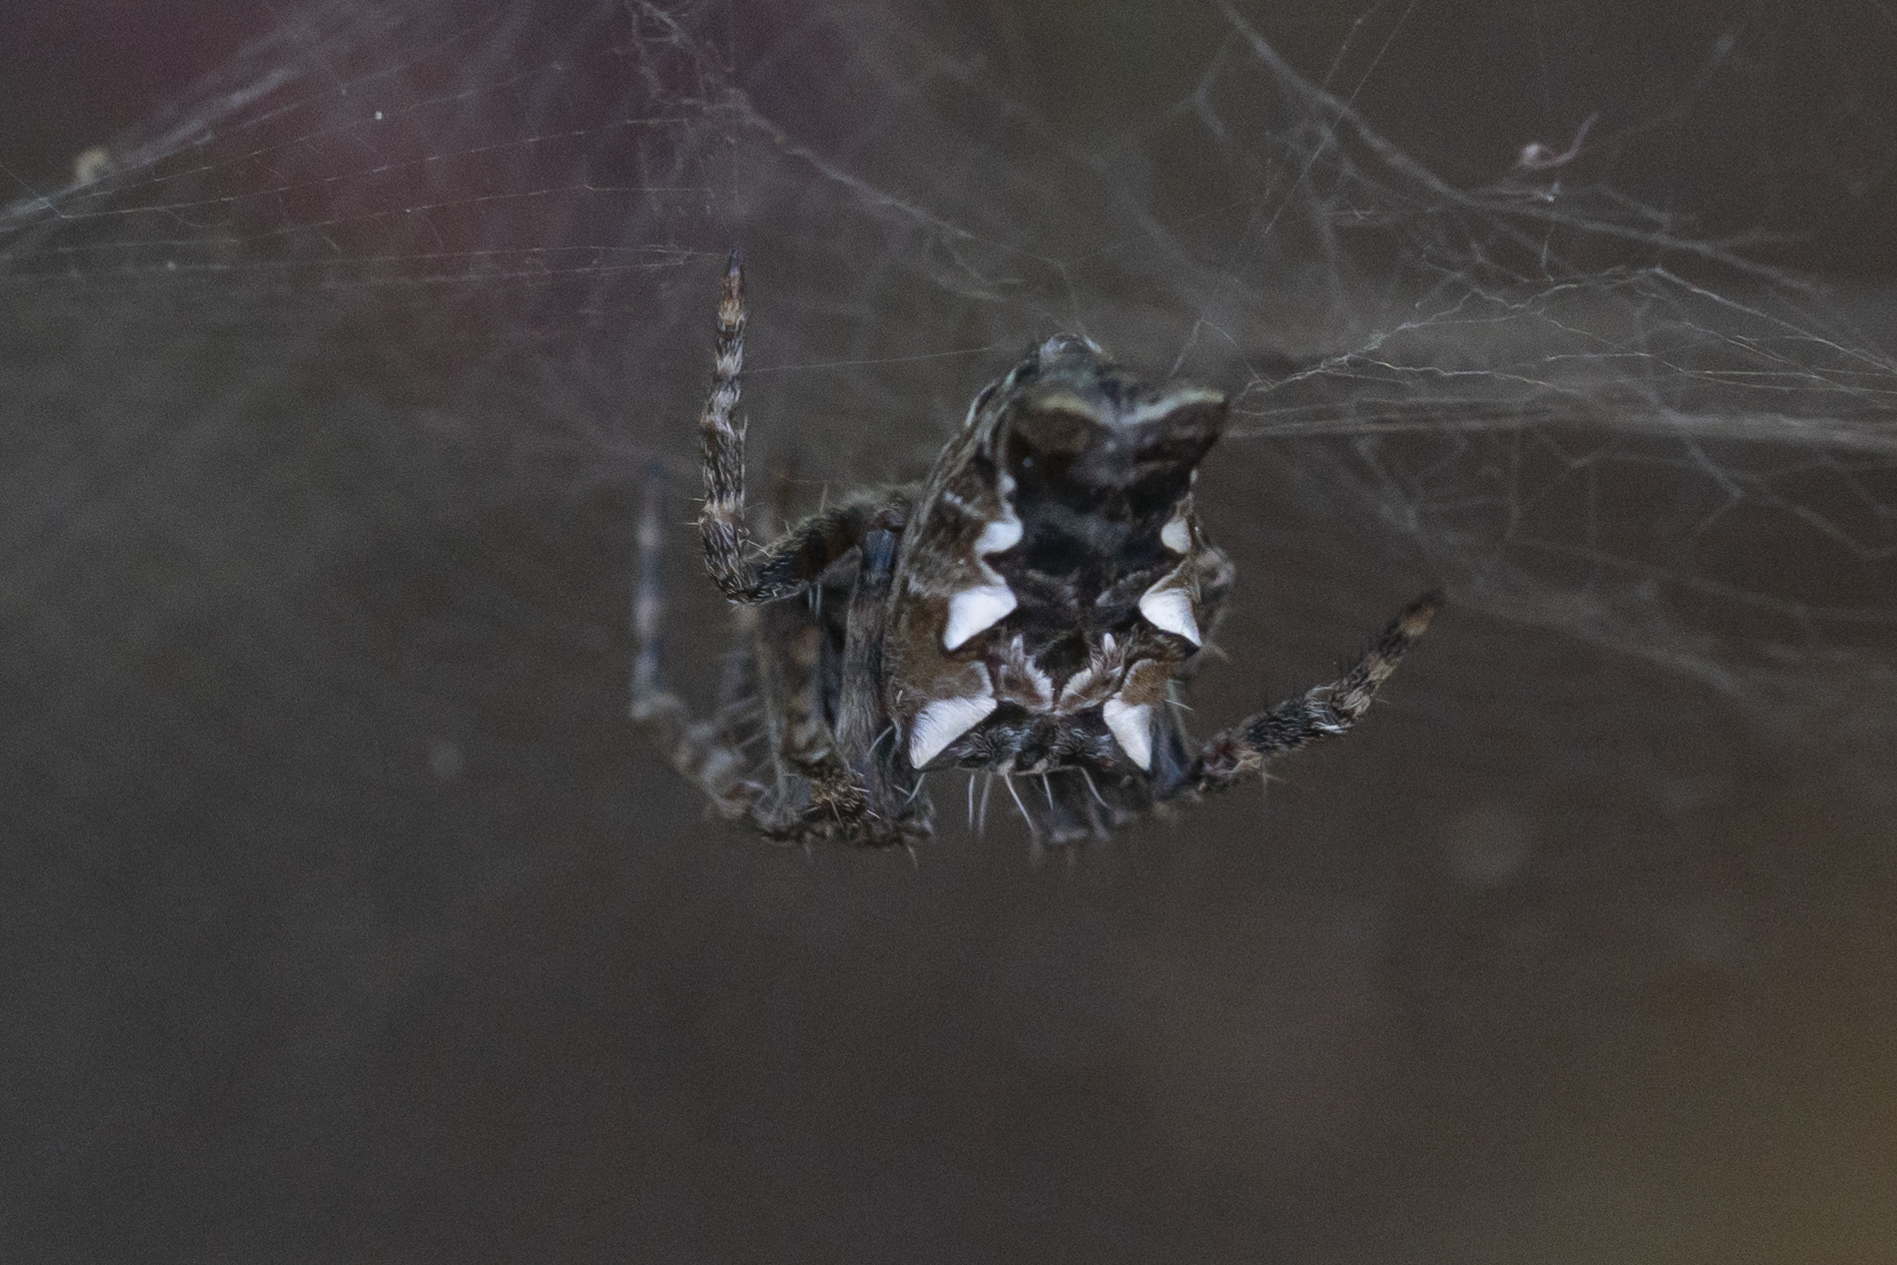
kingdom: Animalia
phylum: Arthropoda
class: Arachnida
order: Araneae
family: Araneidae
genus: Cyrtophora
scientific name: Cyrtophora citricola
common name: Orb weavers
